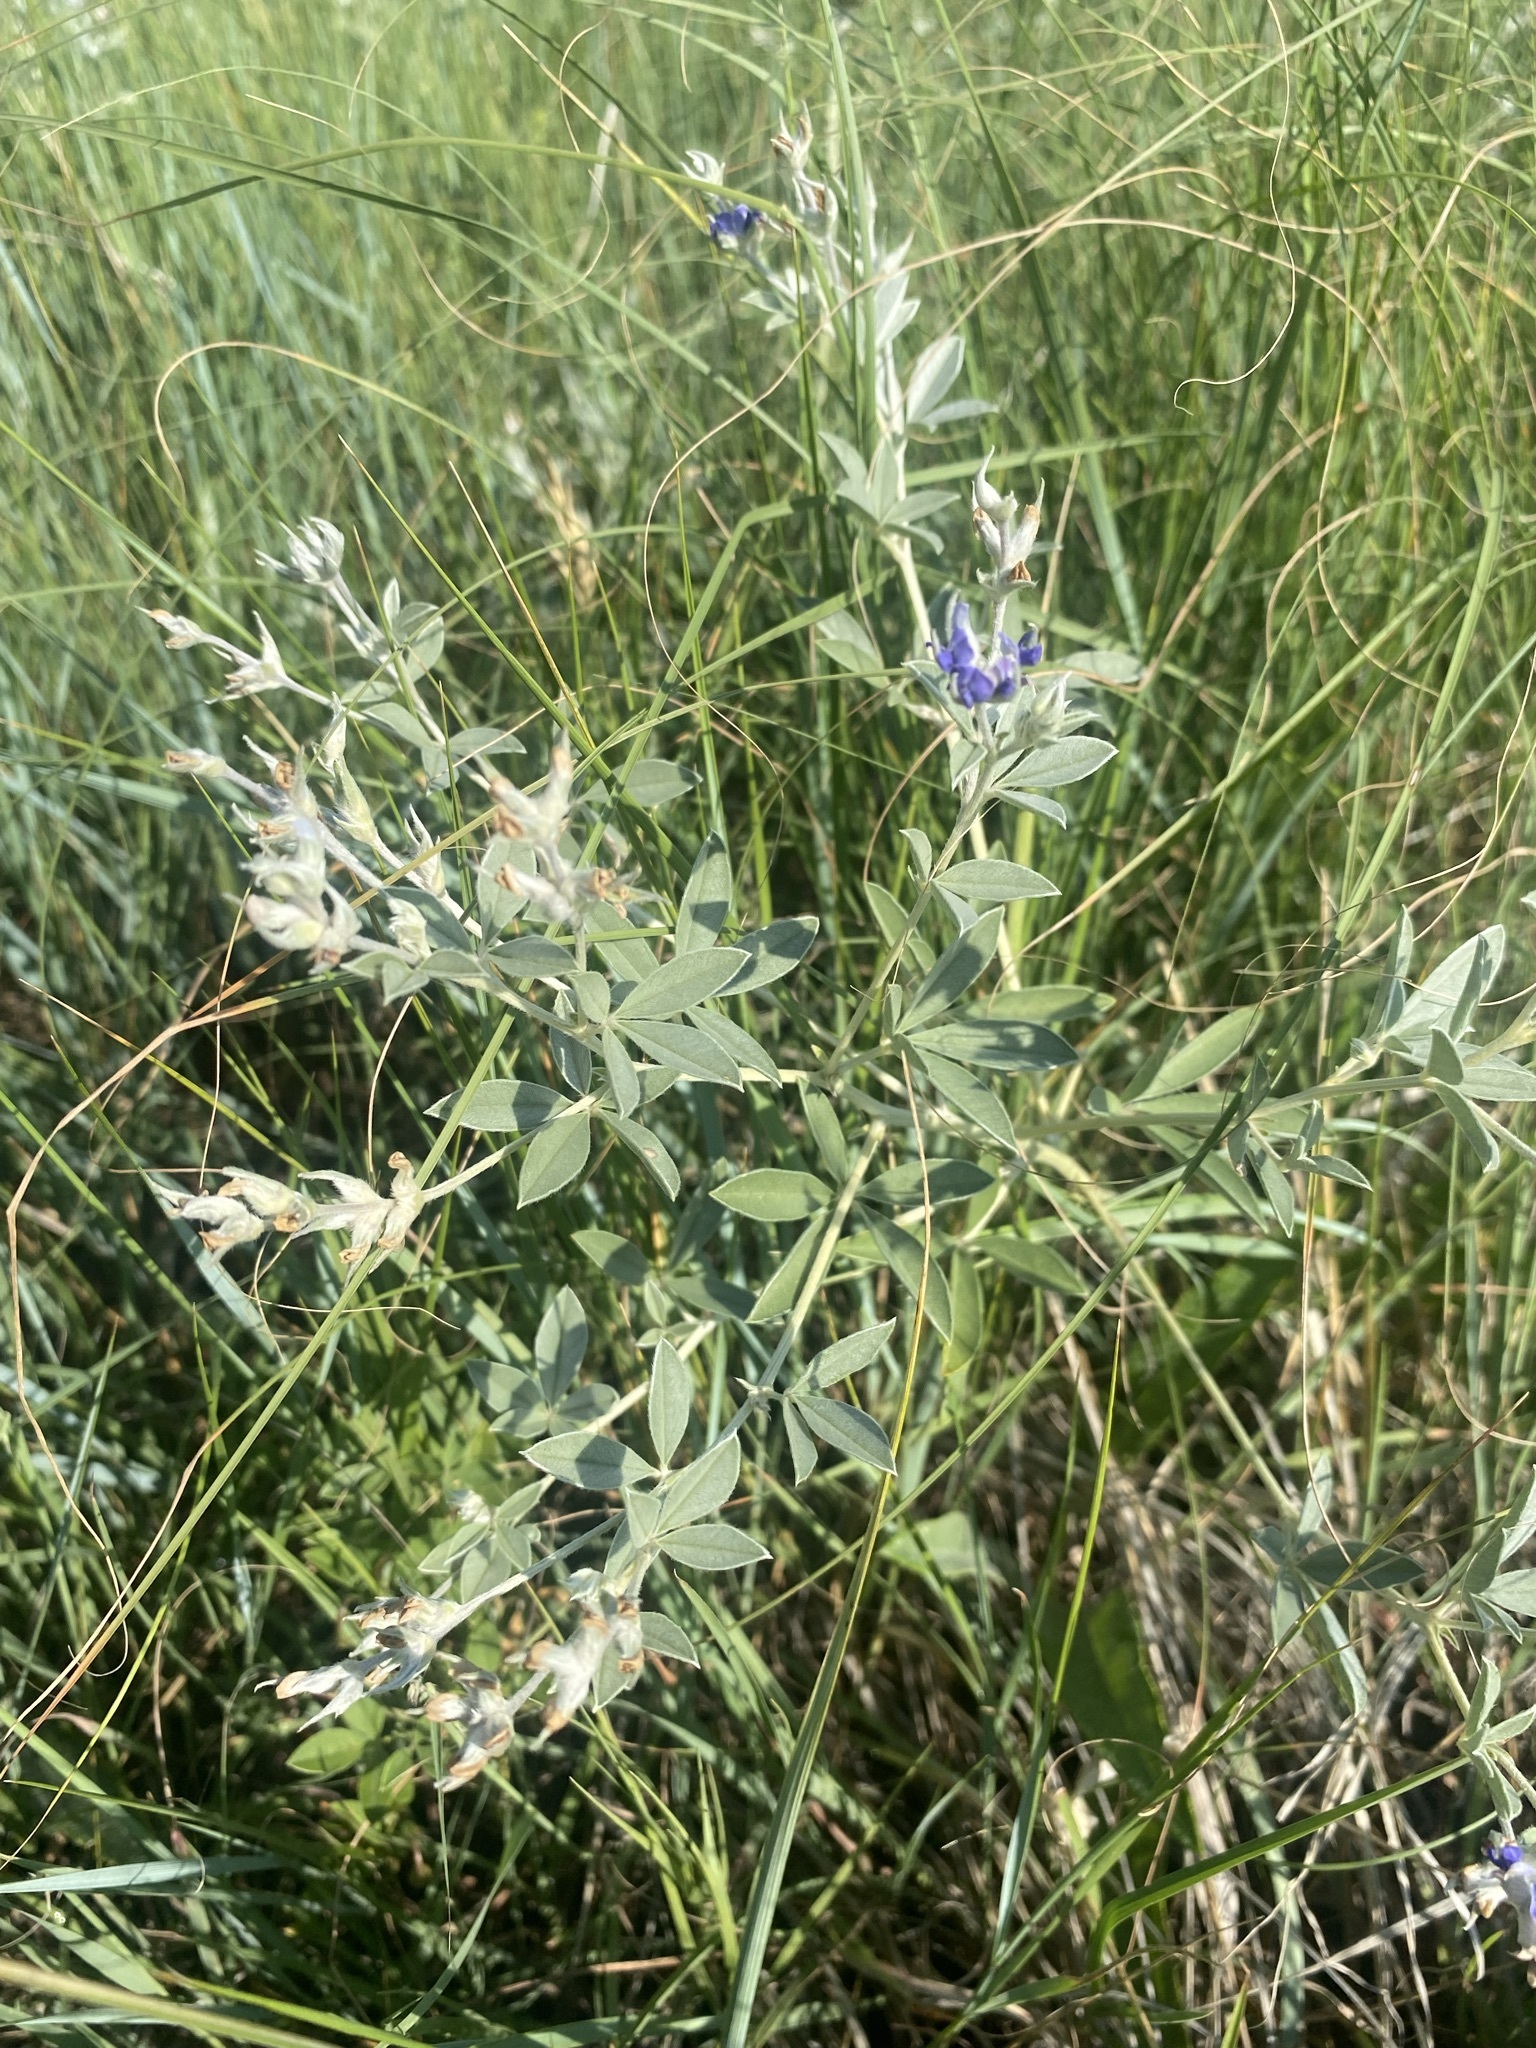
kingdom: Plantae
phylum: Tracheophyta
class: Magnoliopsida
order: Fabales
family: Fabaceae
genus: Pediomelum
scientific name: Pediomelum argophyllum
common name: Silver-leaved indian breadroot
